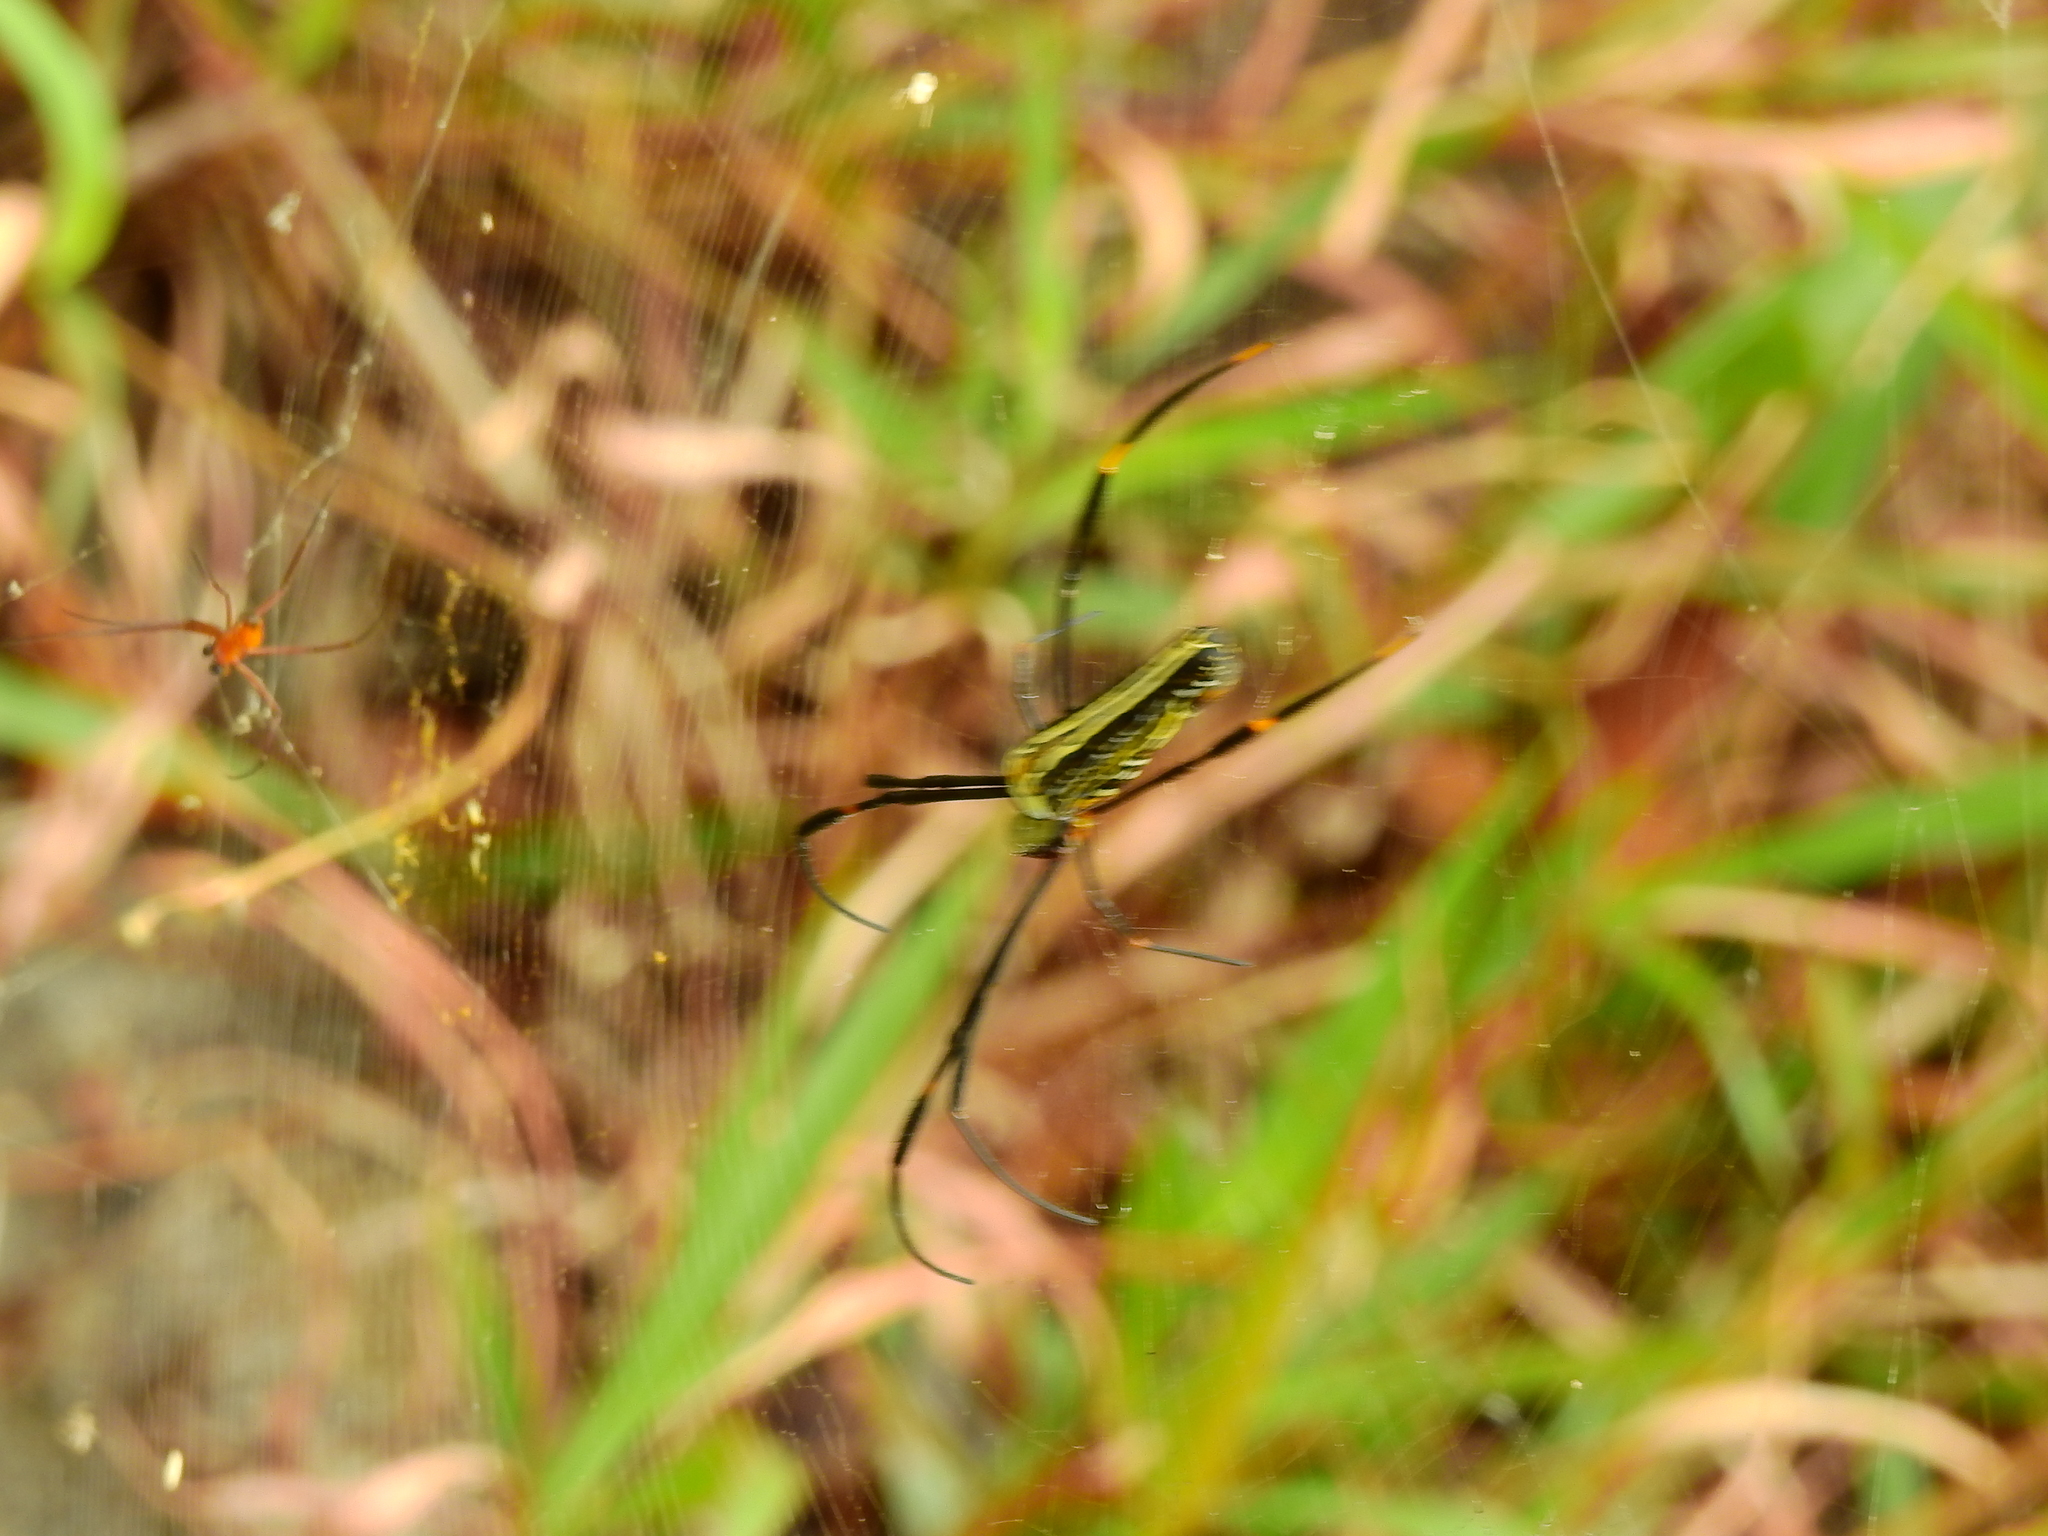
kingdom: Animalia
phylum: Arthropoda
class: Arachnida
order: Araneae
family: Araneidae
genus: Nephila
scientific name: Nephila pilipes
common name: Giant golden orb weaver
